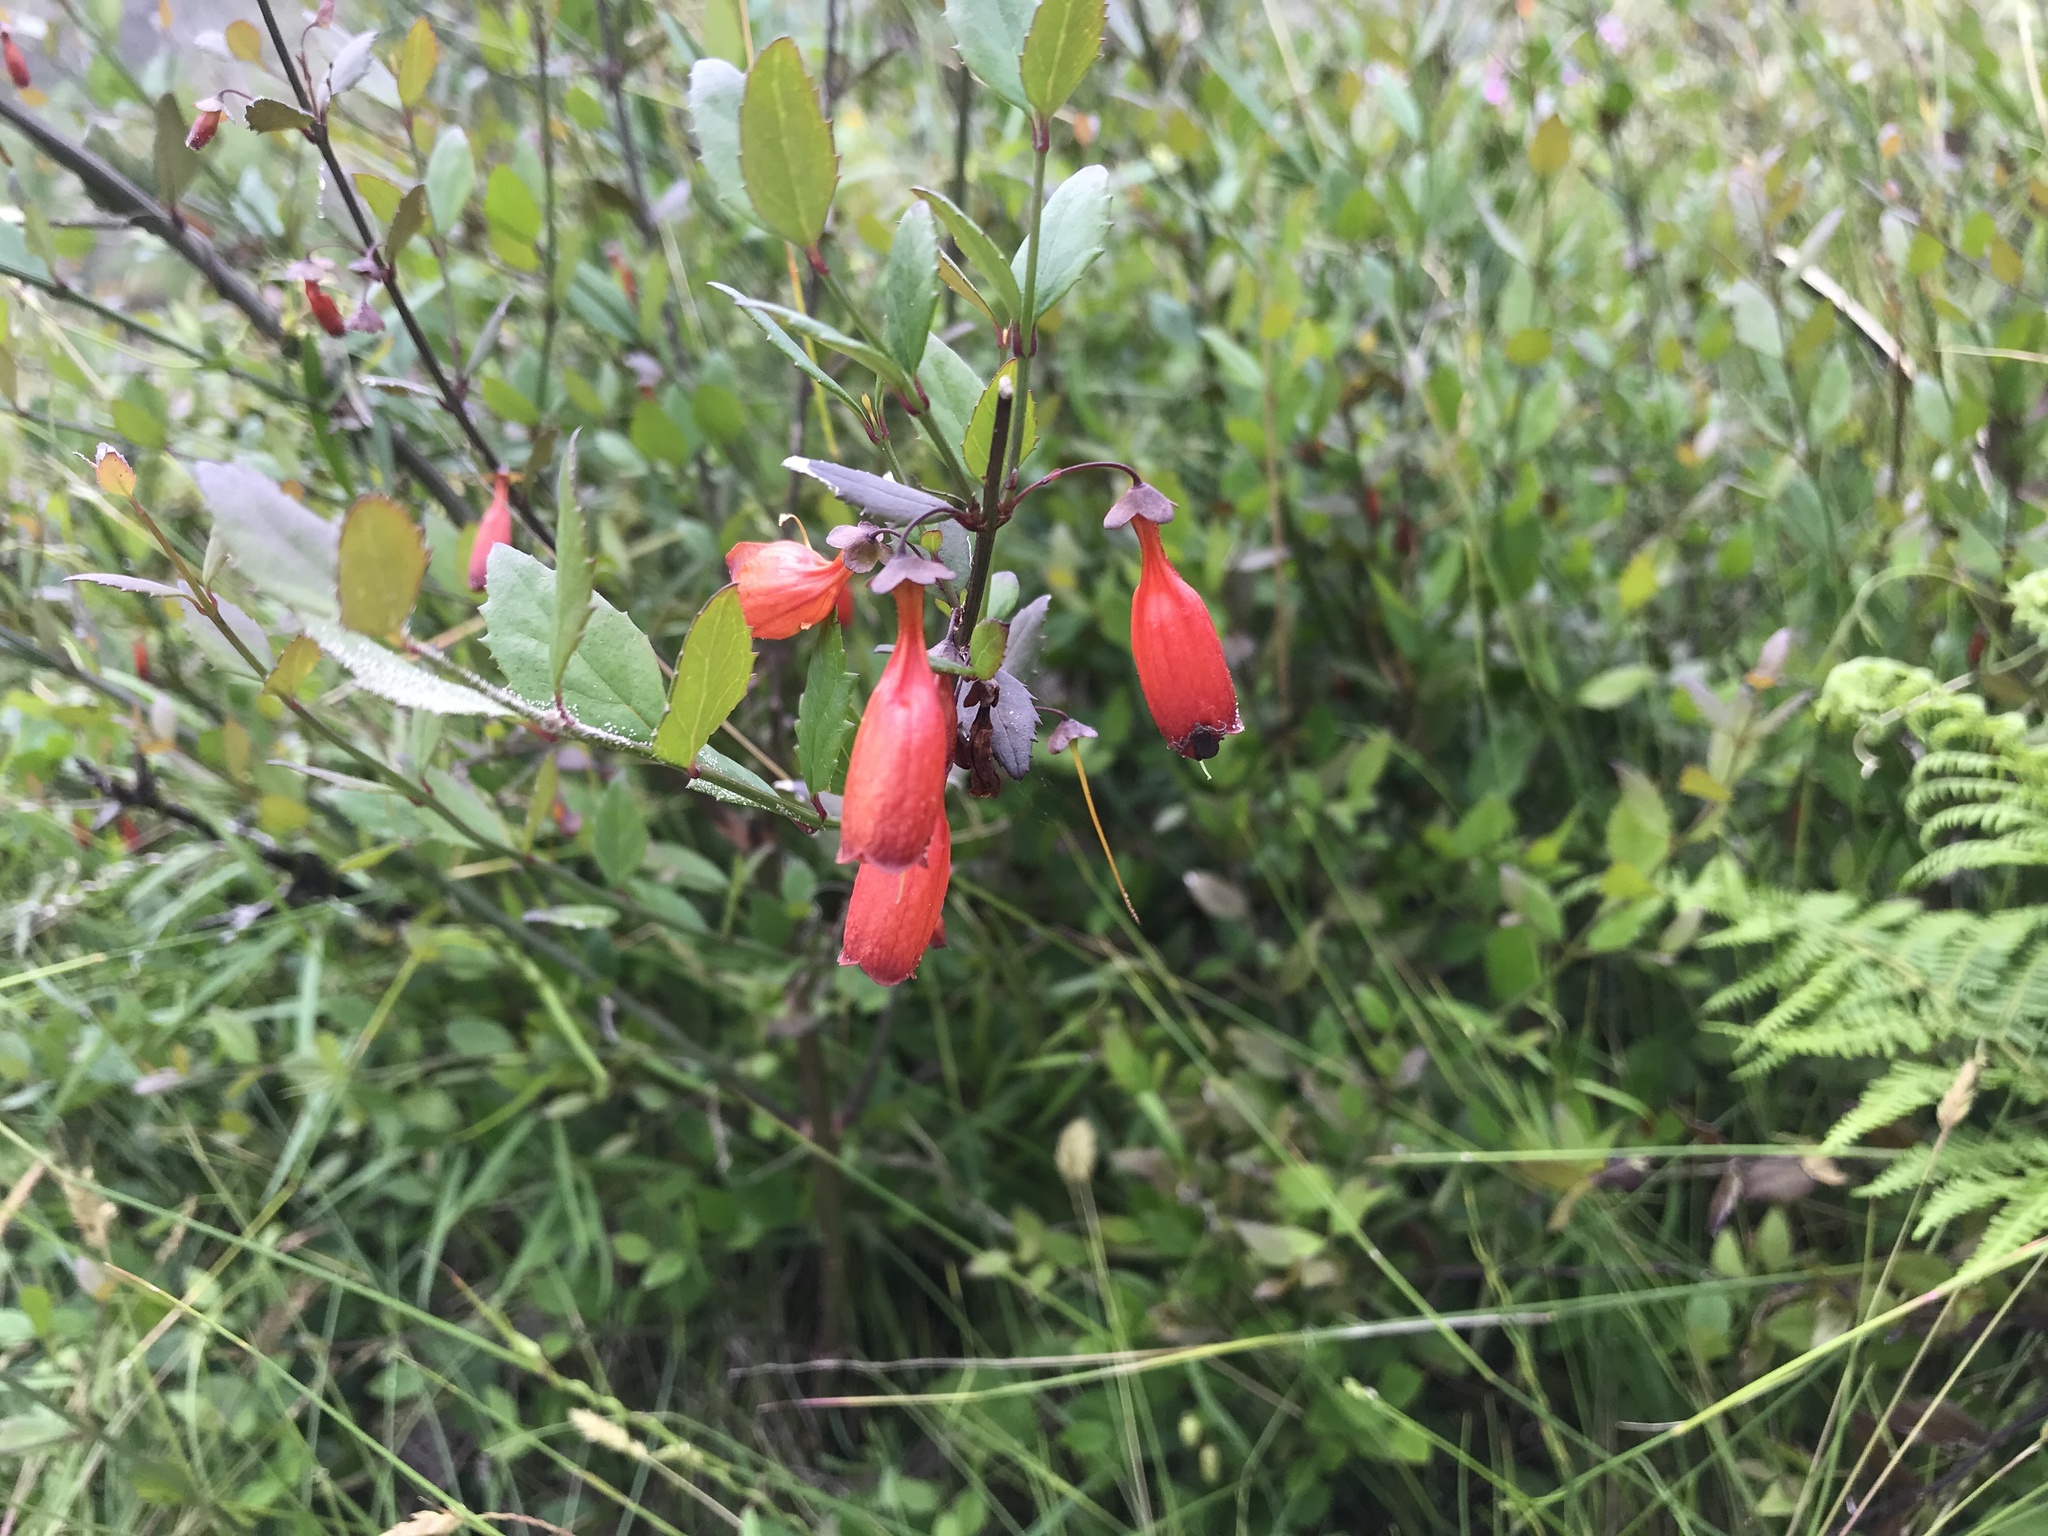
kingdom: Plantae
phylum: Tracheophyta
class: Magnoliopsida
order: Lamiales
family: Stilbaceae
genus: Halleria
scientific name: Halleria elliptica
